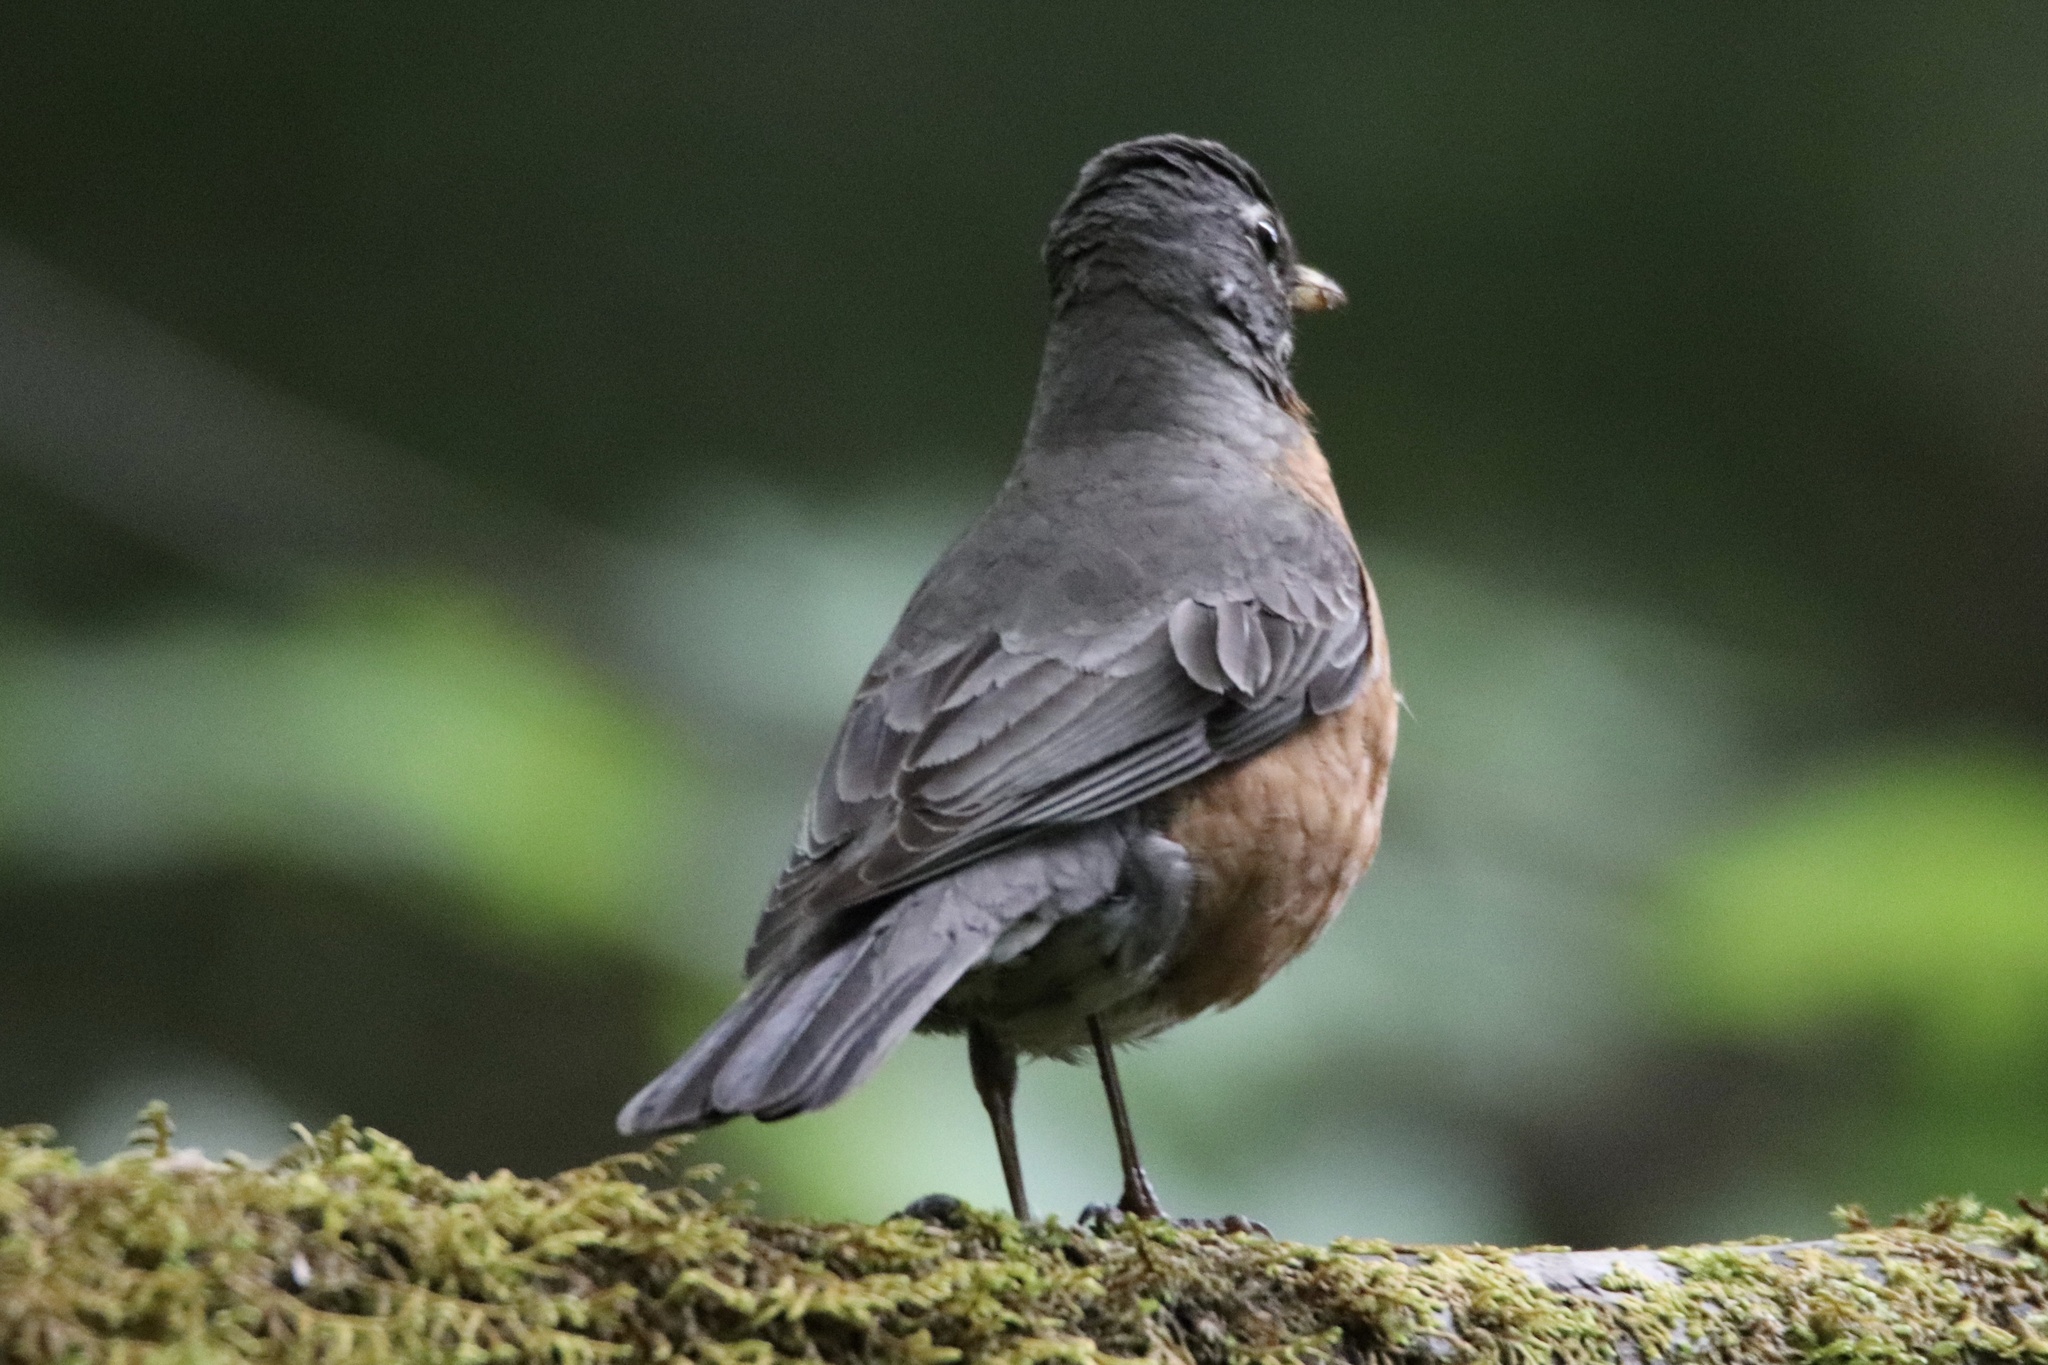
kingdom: Animalia
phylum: Chordata
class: Aves
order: Passeriformes
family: Turdidae
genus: Turdus
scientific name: Turdus migratorius
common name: American robin
